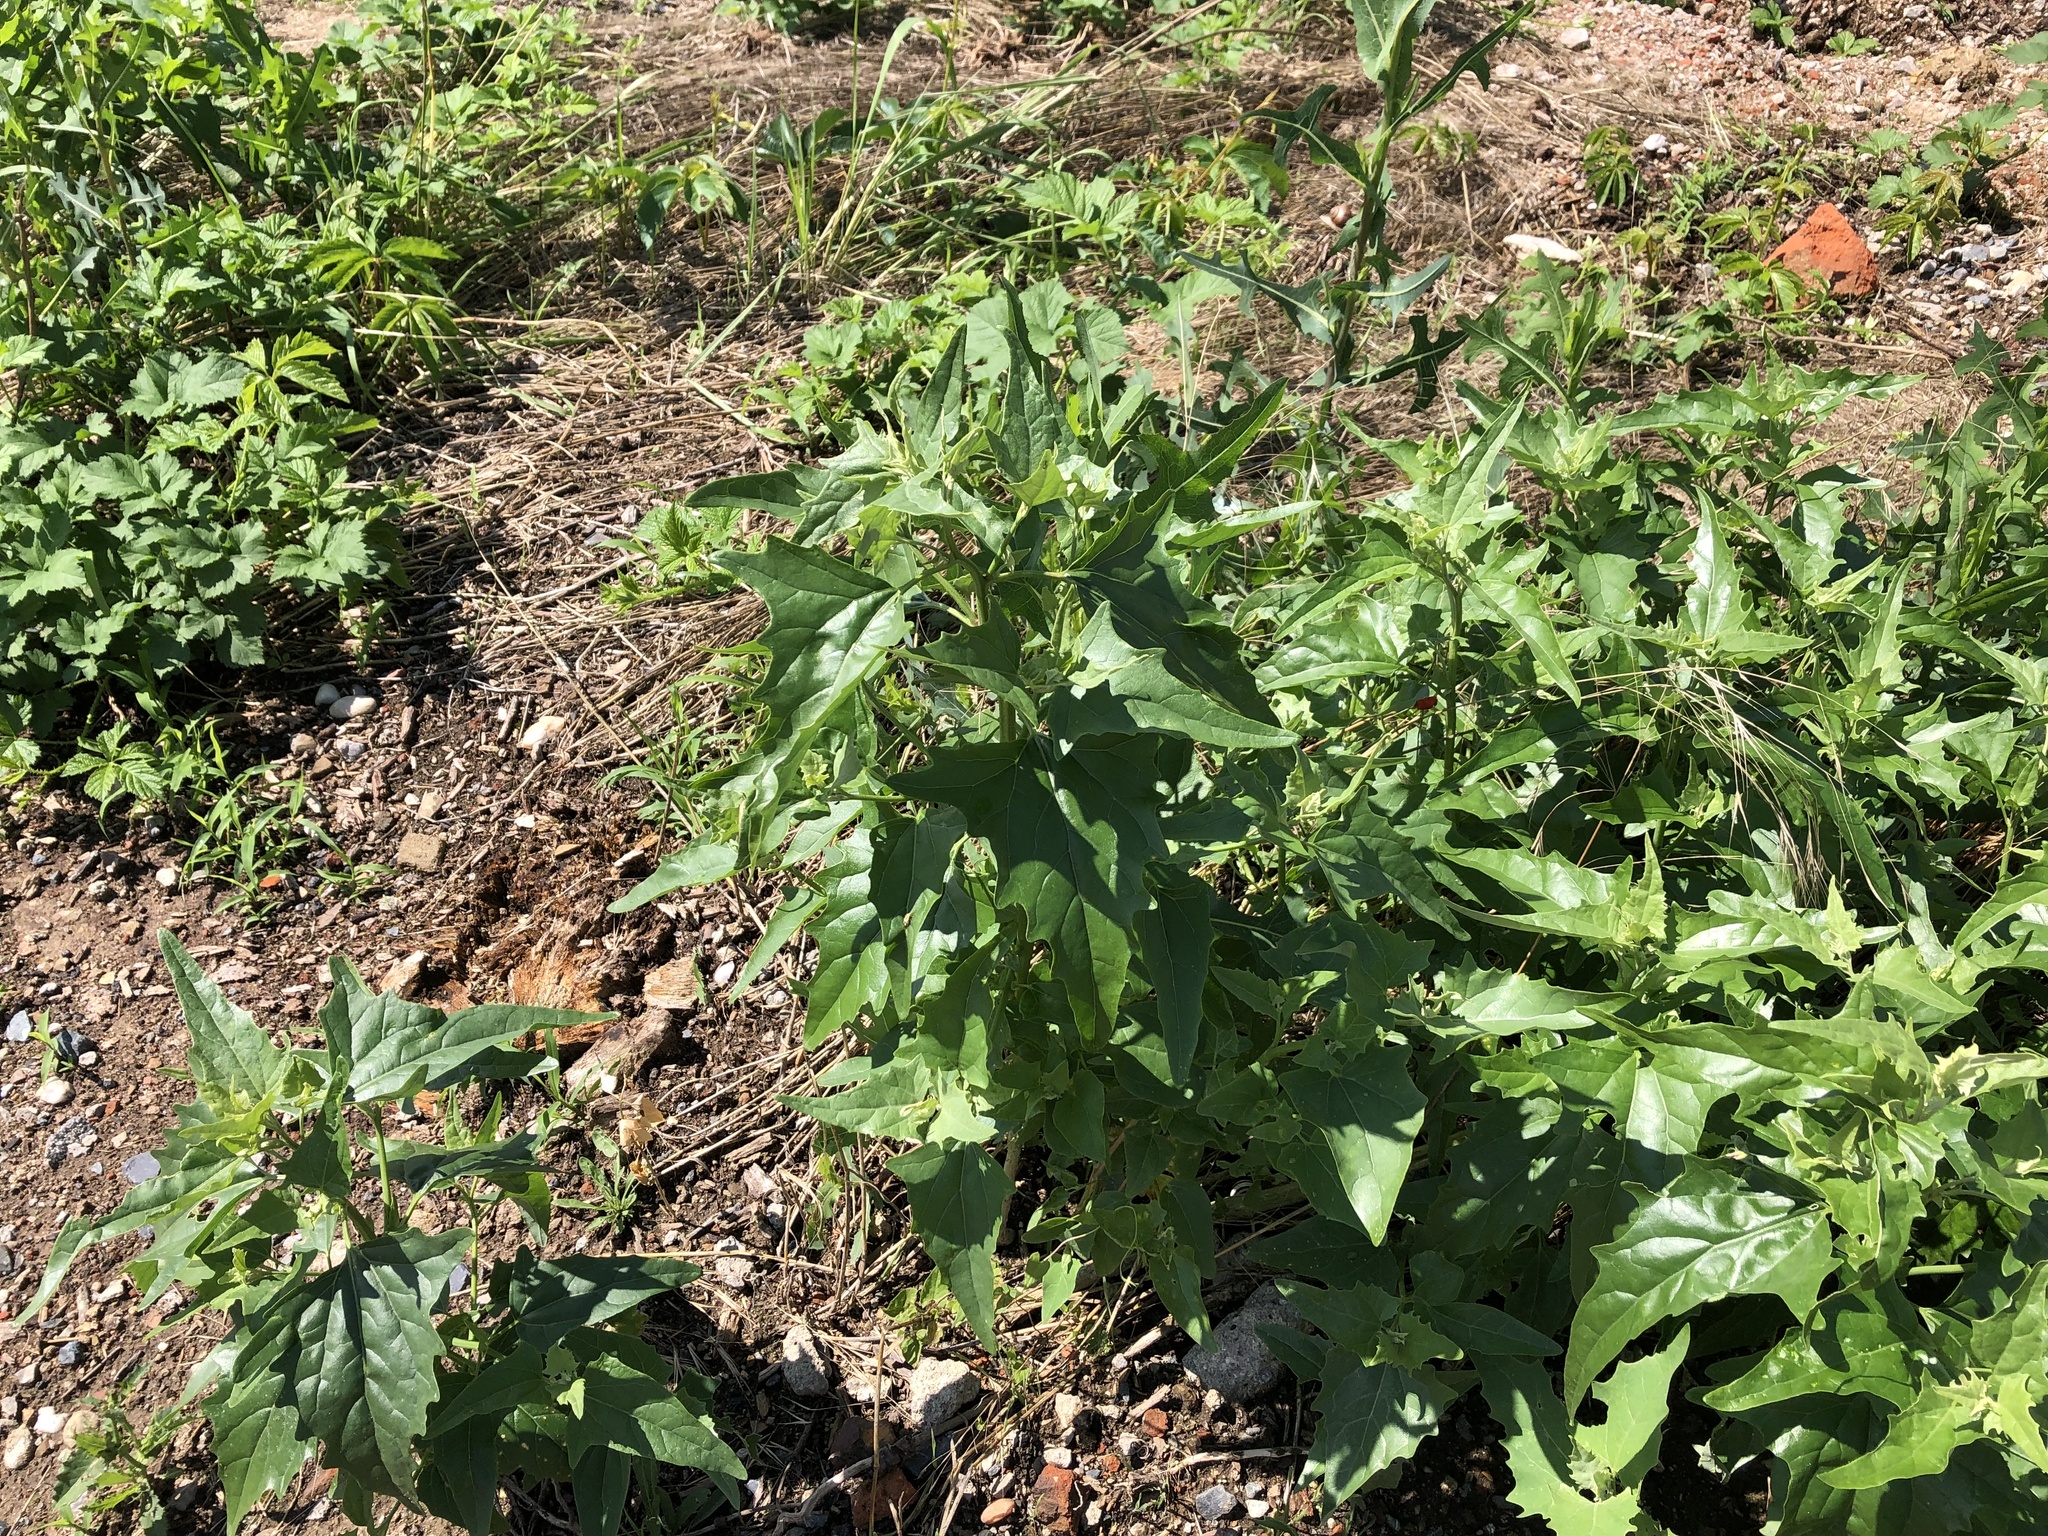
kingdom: Plantae
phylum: Tracheophyta
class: Magnoliopsida
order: Caryophyllales
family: Amaranthaceae
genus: Atriplex
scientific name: Atriplex sagittata
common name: Purple orache
